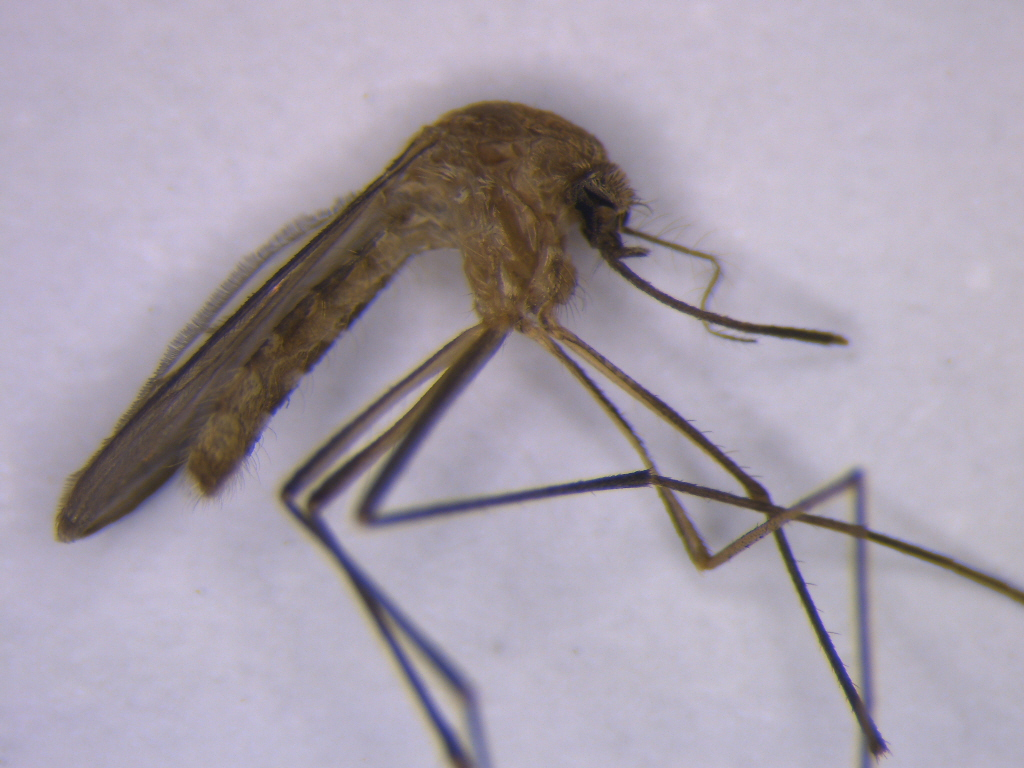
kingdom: Animalia
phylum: Arthropoda
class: Insecta
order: Diptera
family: Culicidae
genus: Culex
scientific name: Culex quinquefasciatus
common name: Southern house mosquito
